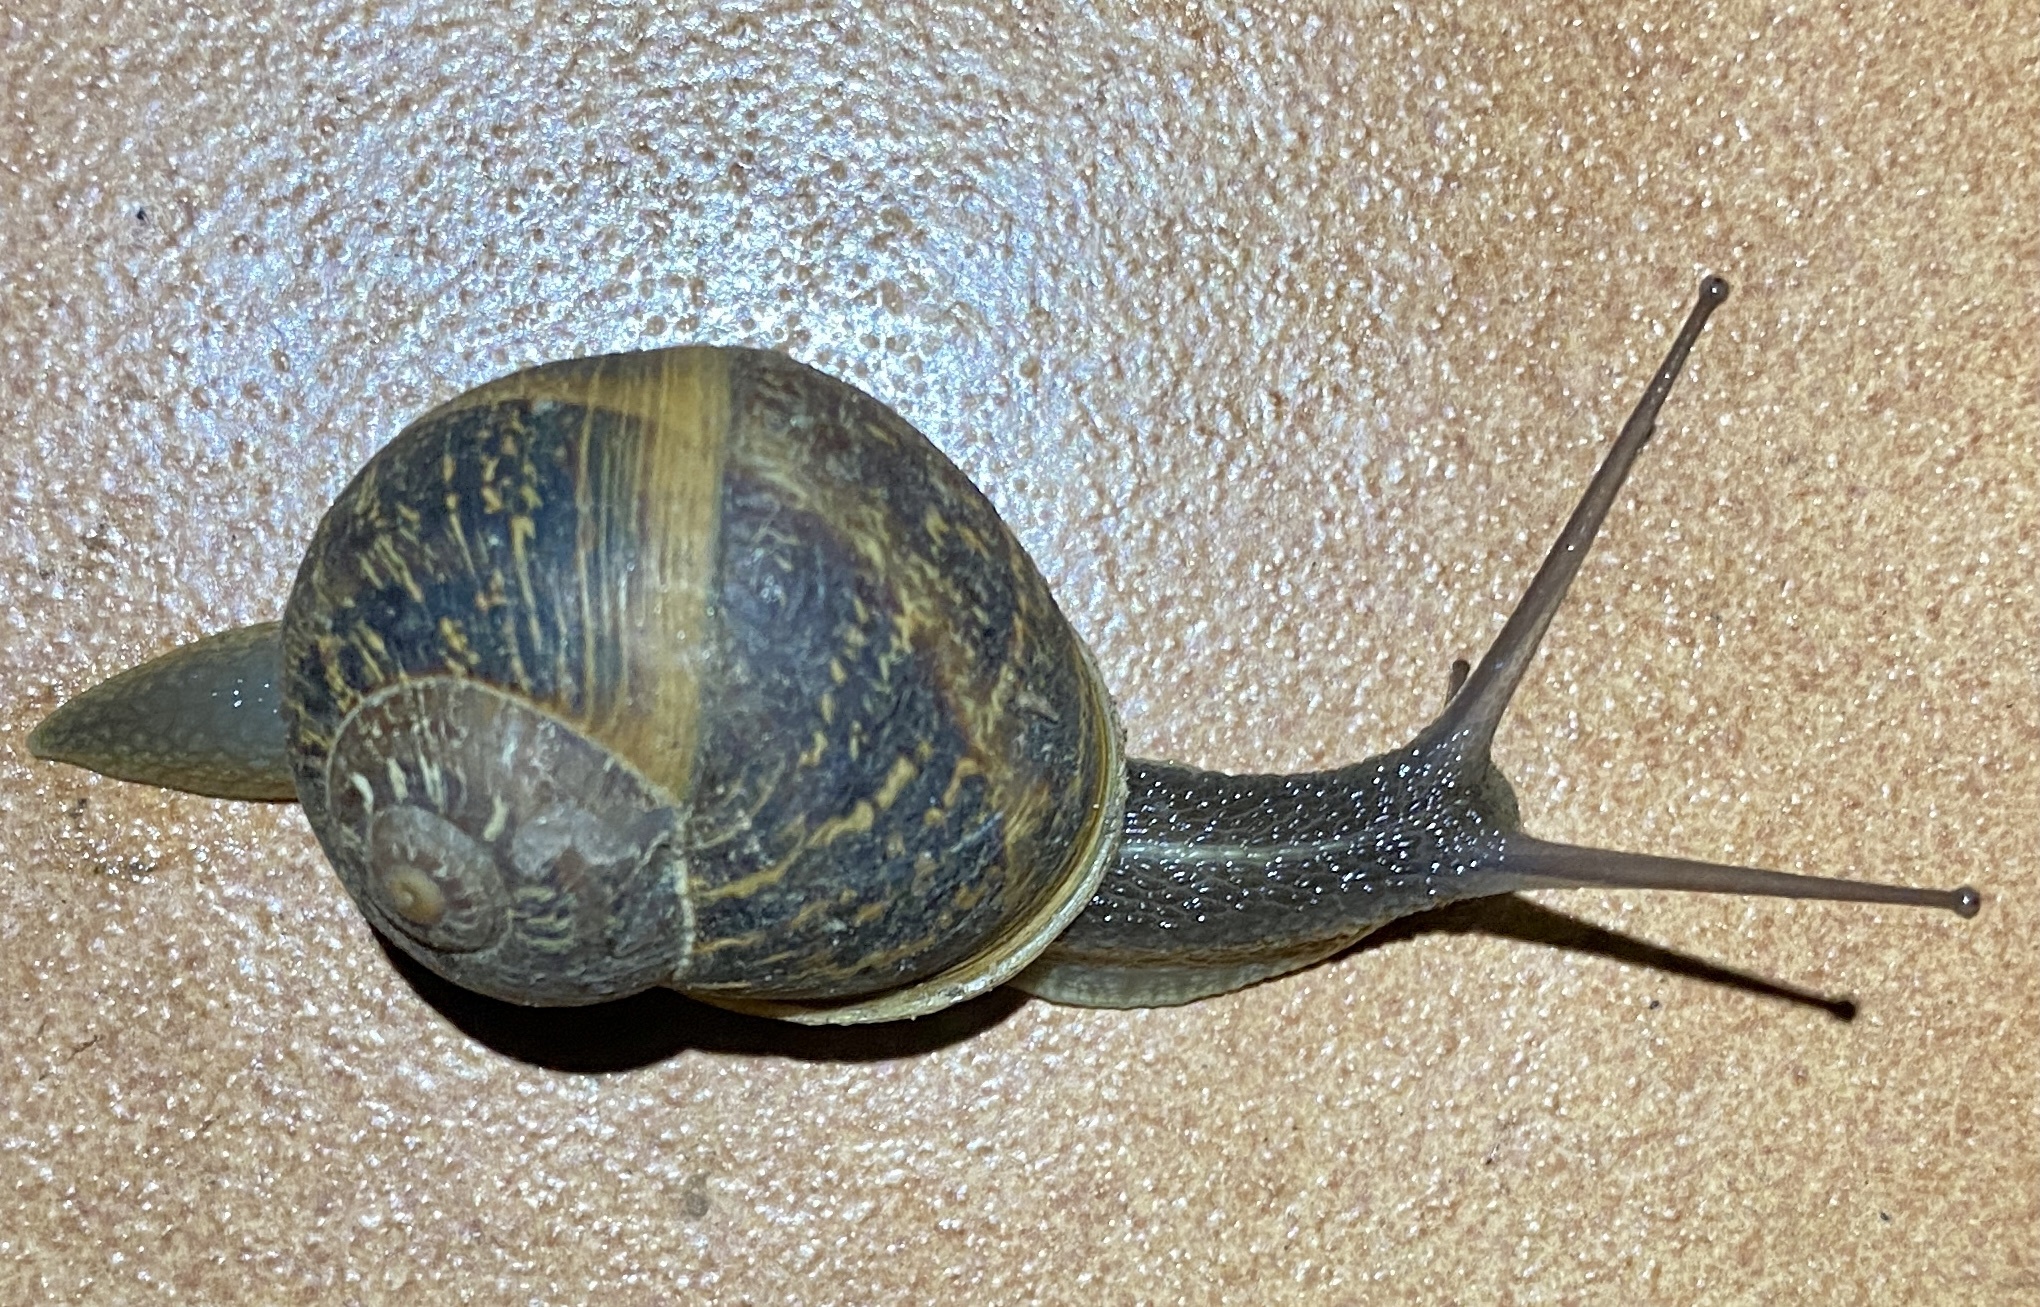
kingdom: Animalia
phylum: Mollusca
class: Gastropoda
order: Stylommatophora
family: Helicidae
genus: Cornu
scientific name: Cornu aspersum
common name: Brown garden snail
